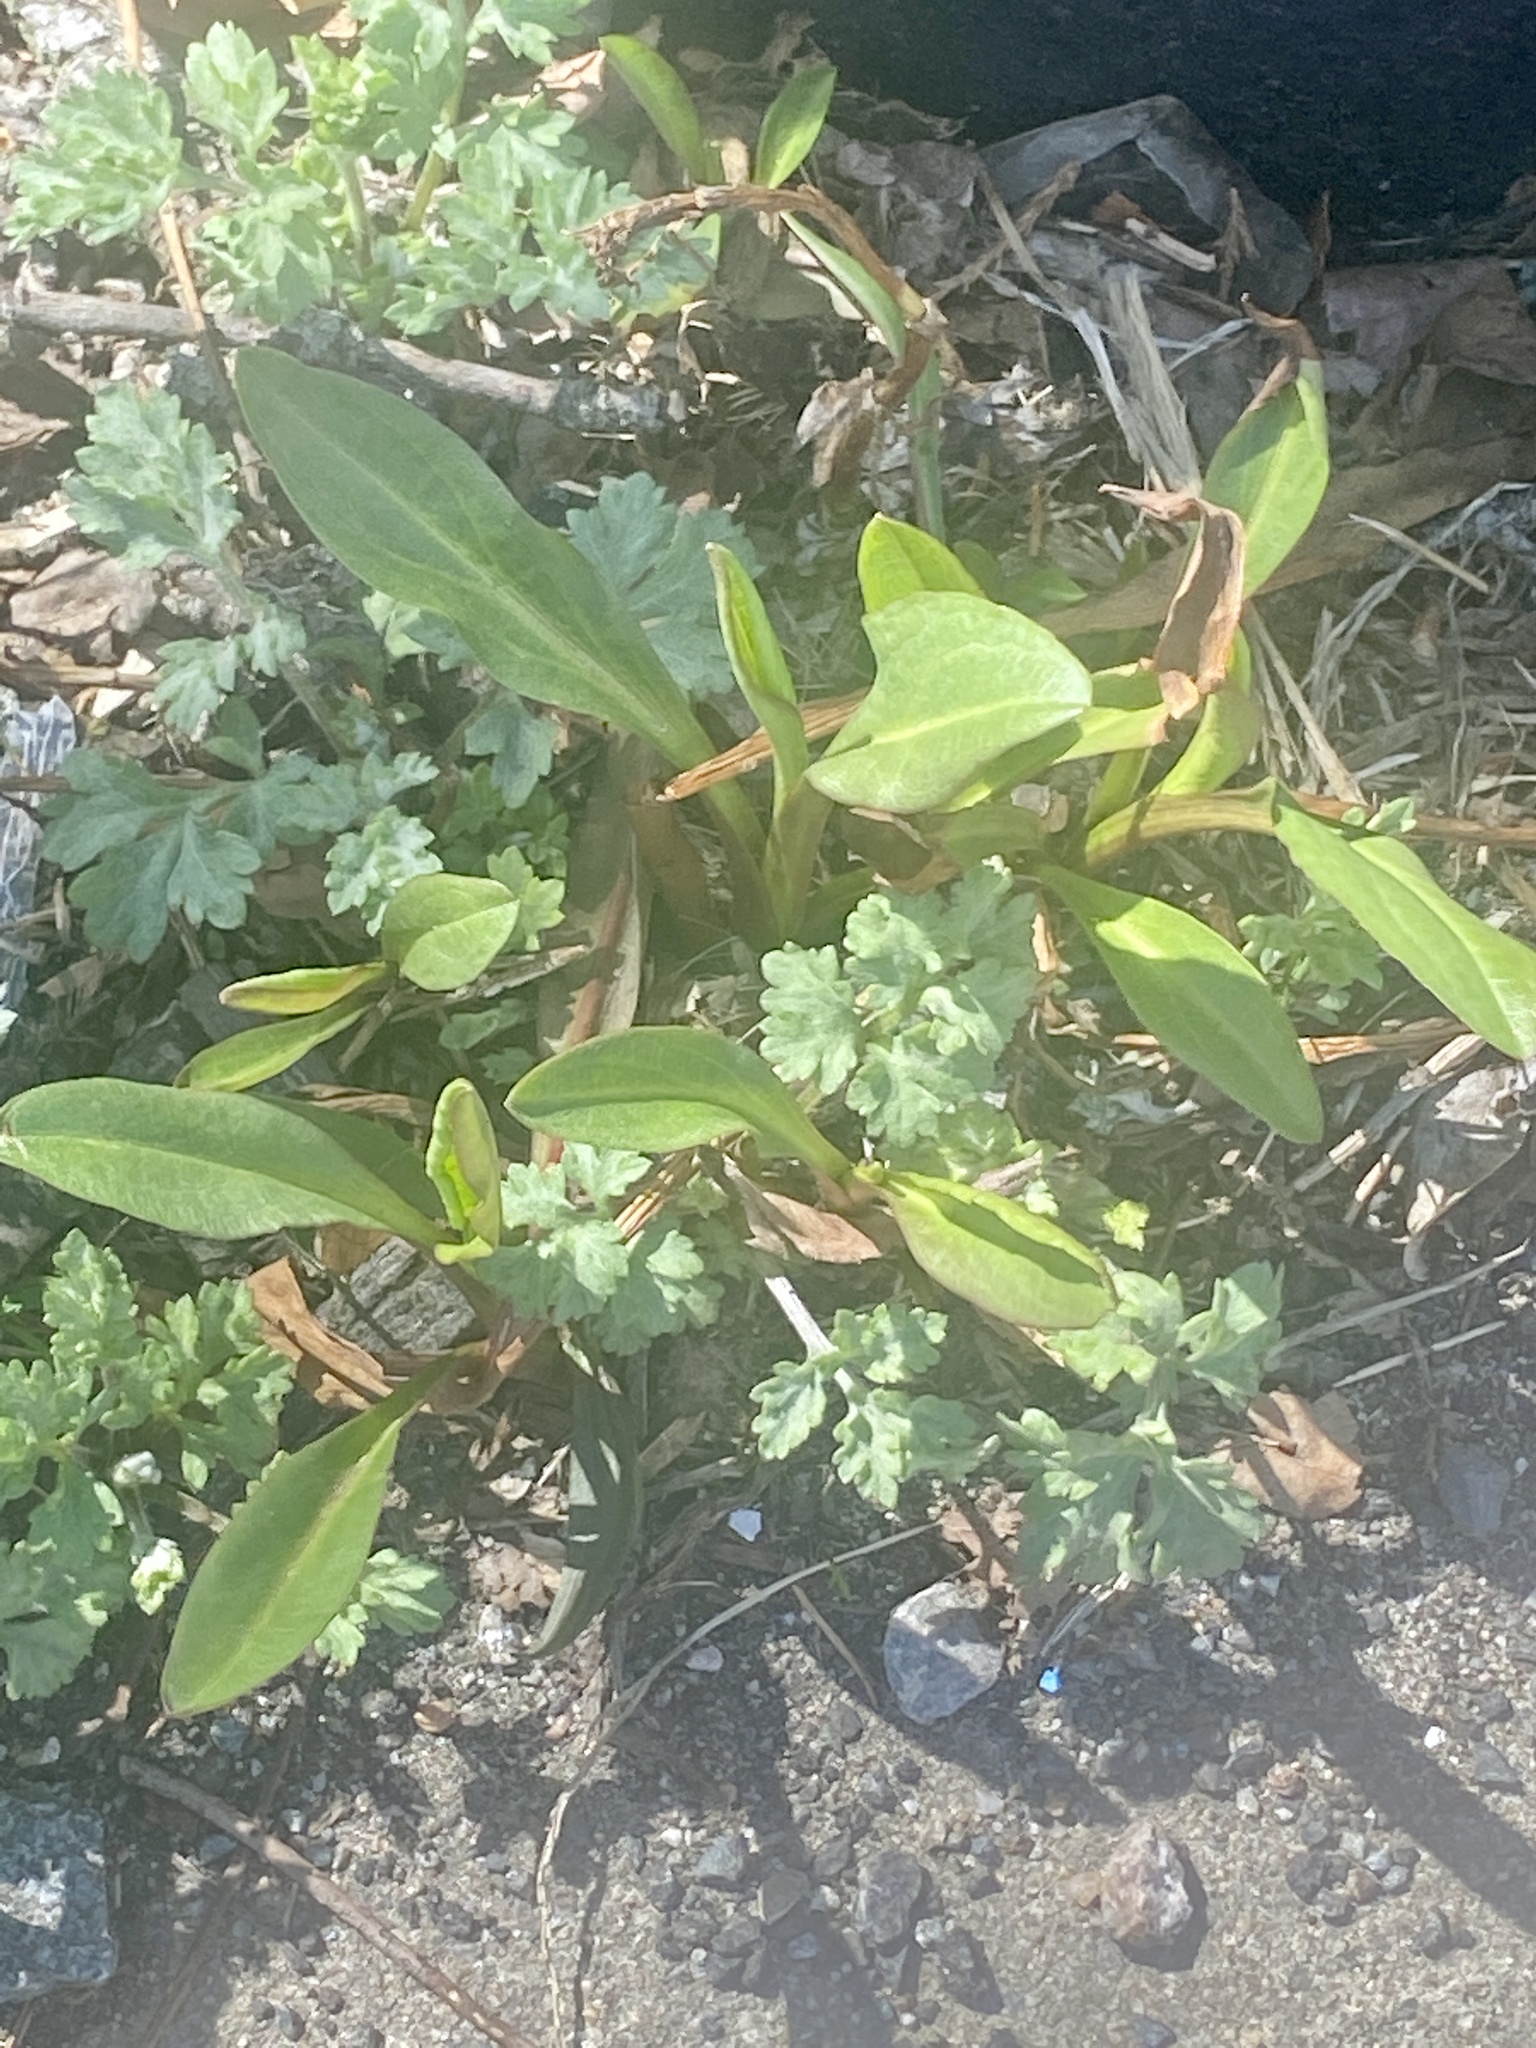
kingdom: Plantae
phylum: Tracheophyta
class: Magnoliopsida
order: Asterales
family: Asteraceae
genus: Solidago
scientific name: Solidago sempervirens
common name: Salt-marsh goldenrod
